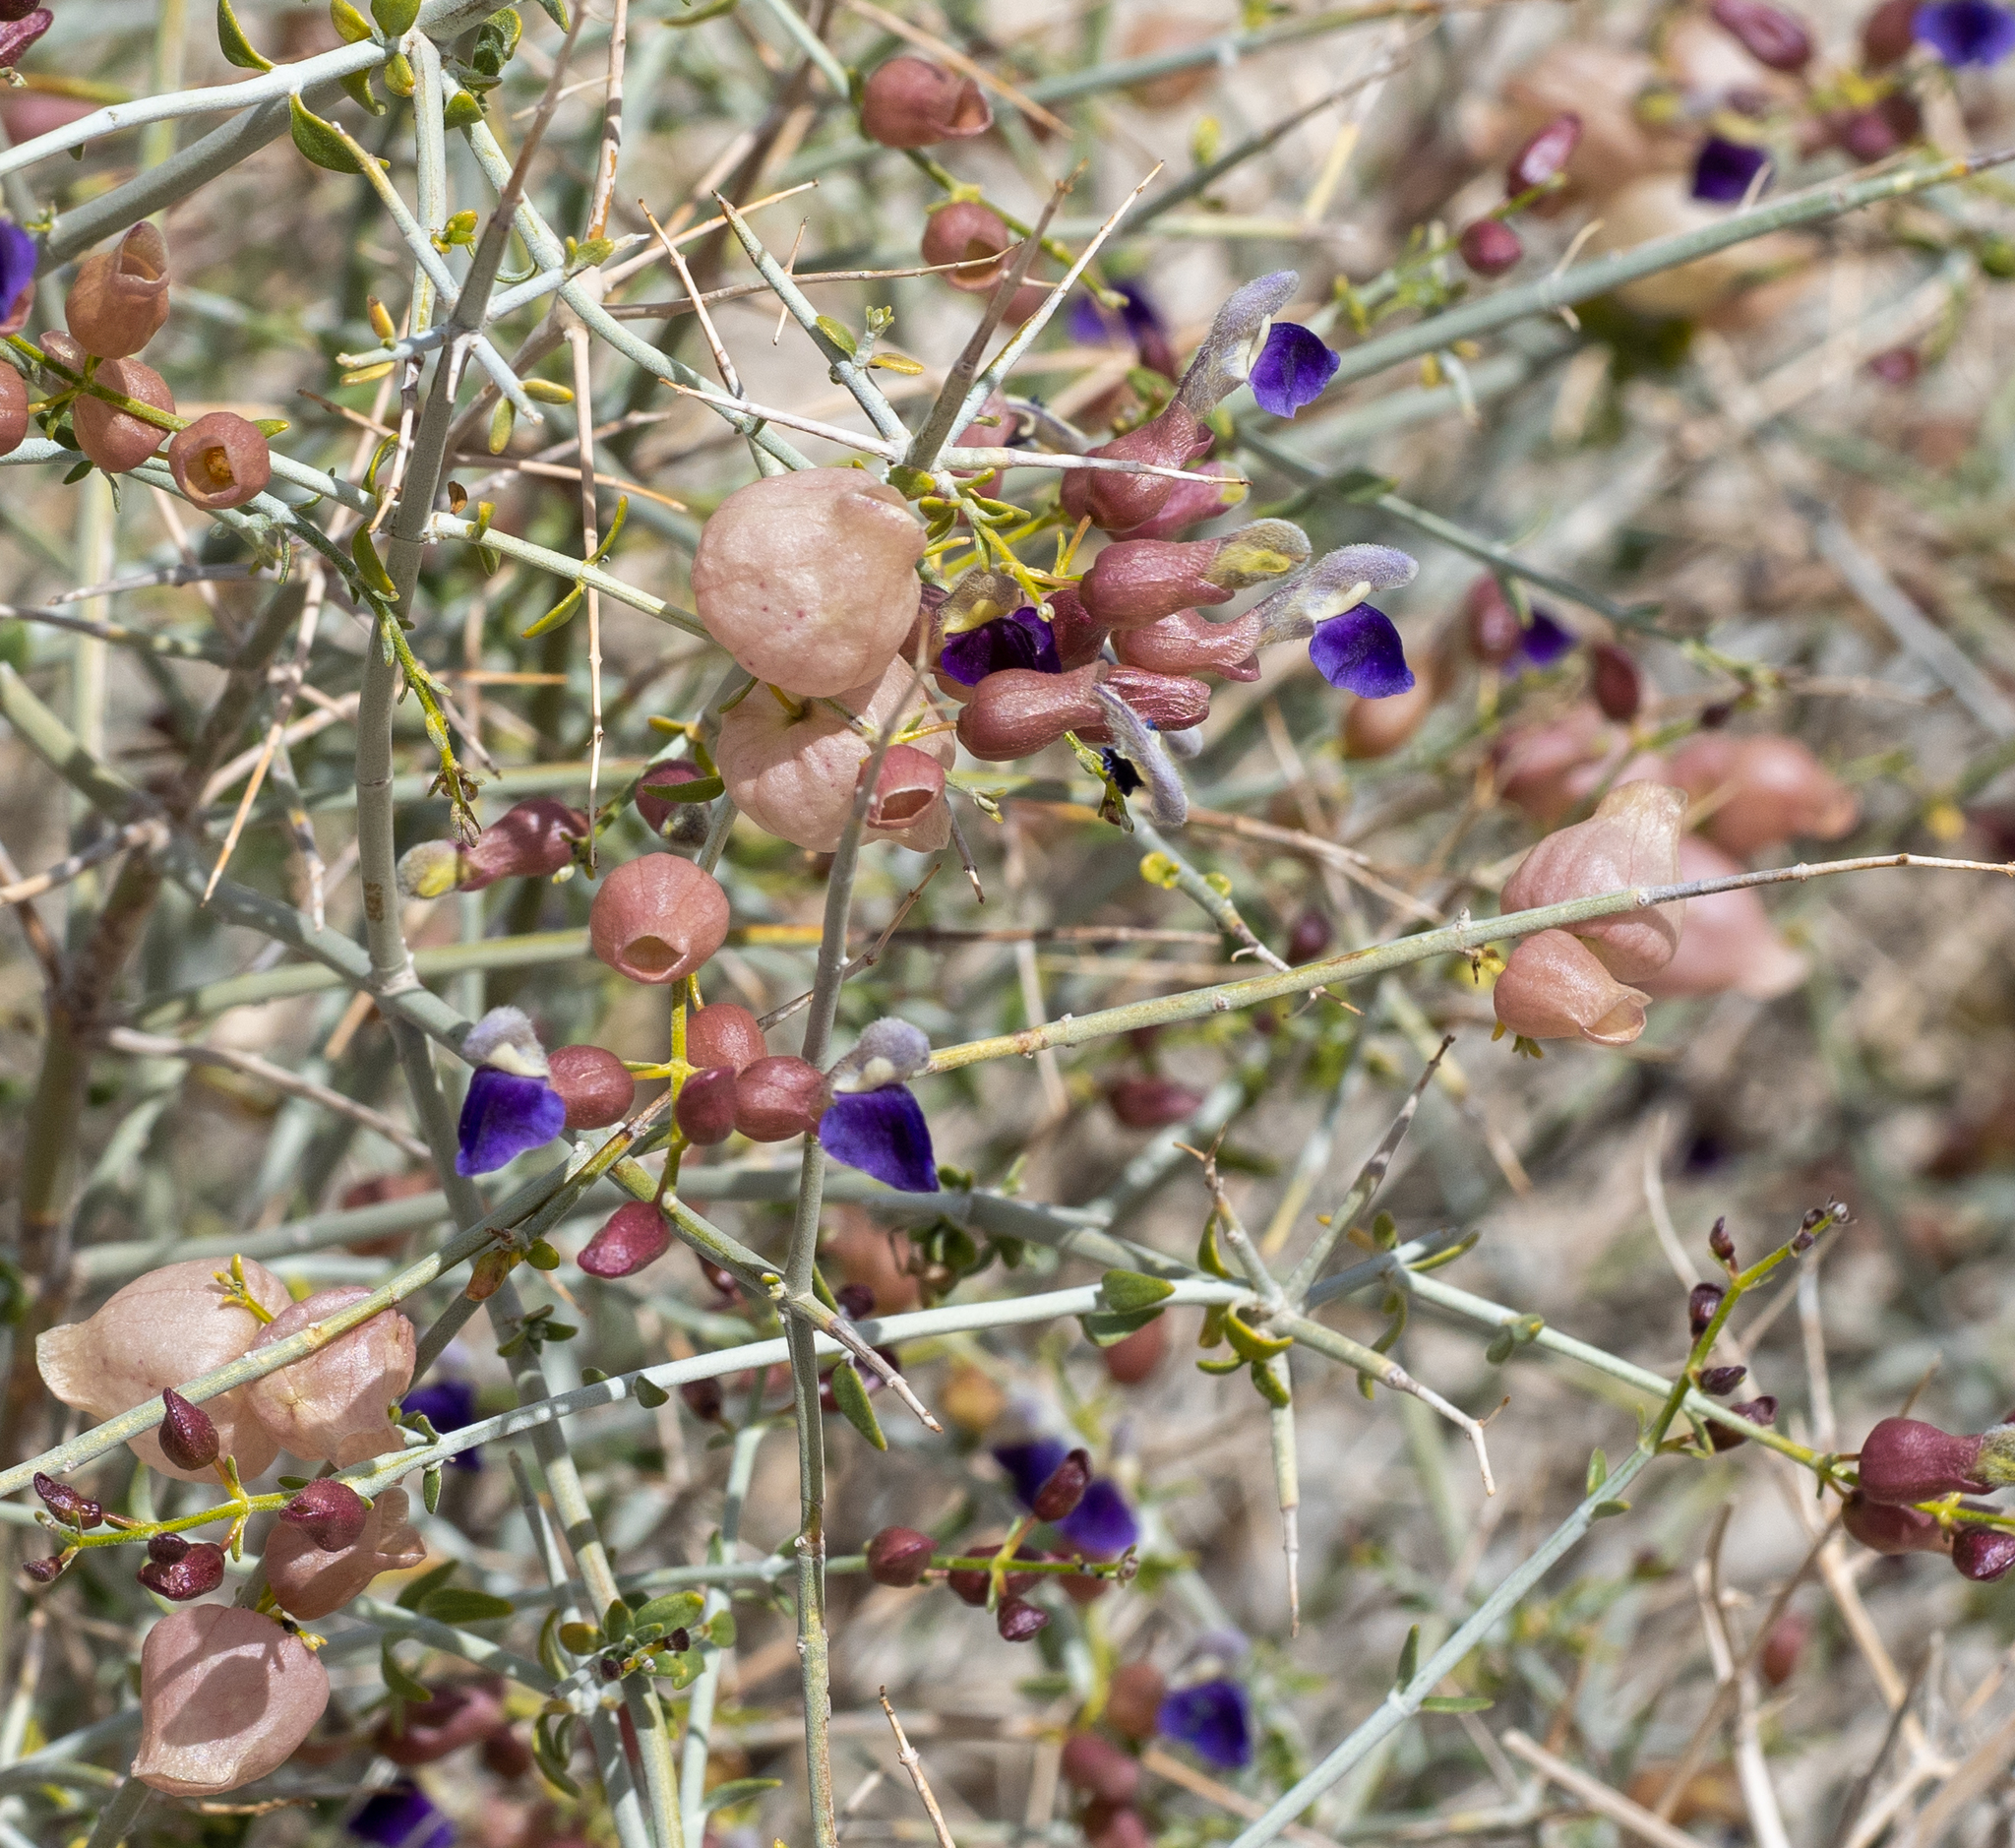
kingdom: Plantae
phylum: Tracheophyta
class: Magnoliopsida
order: Lamiales
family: Lamiaceae
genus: Scutellaria
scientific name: Scutellaria mexicana
